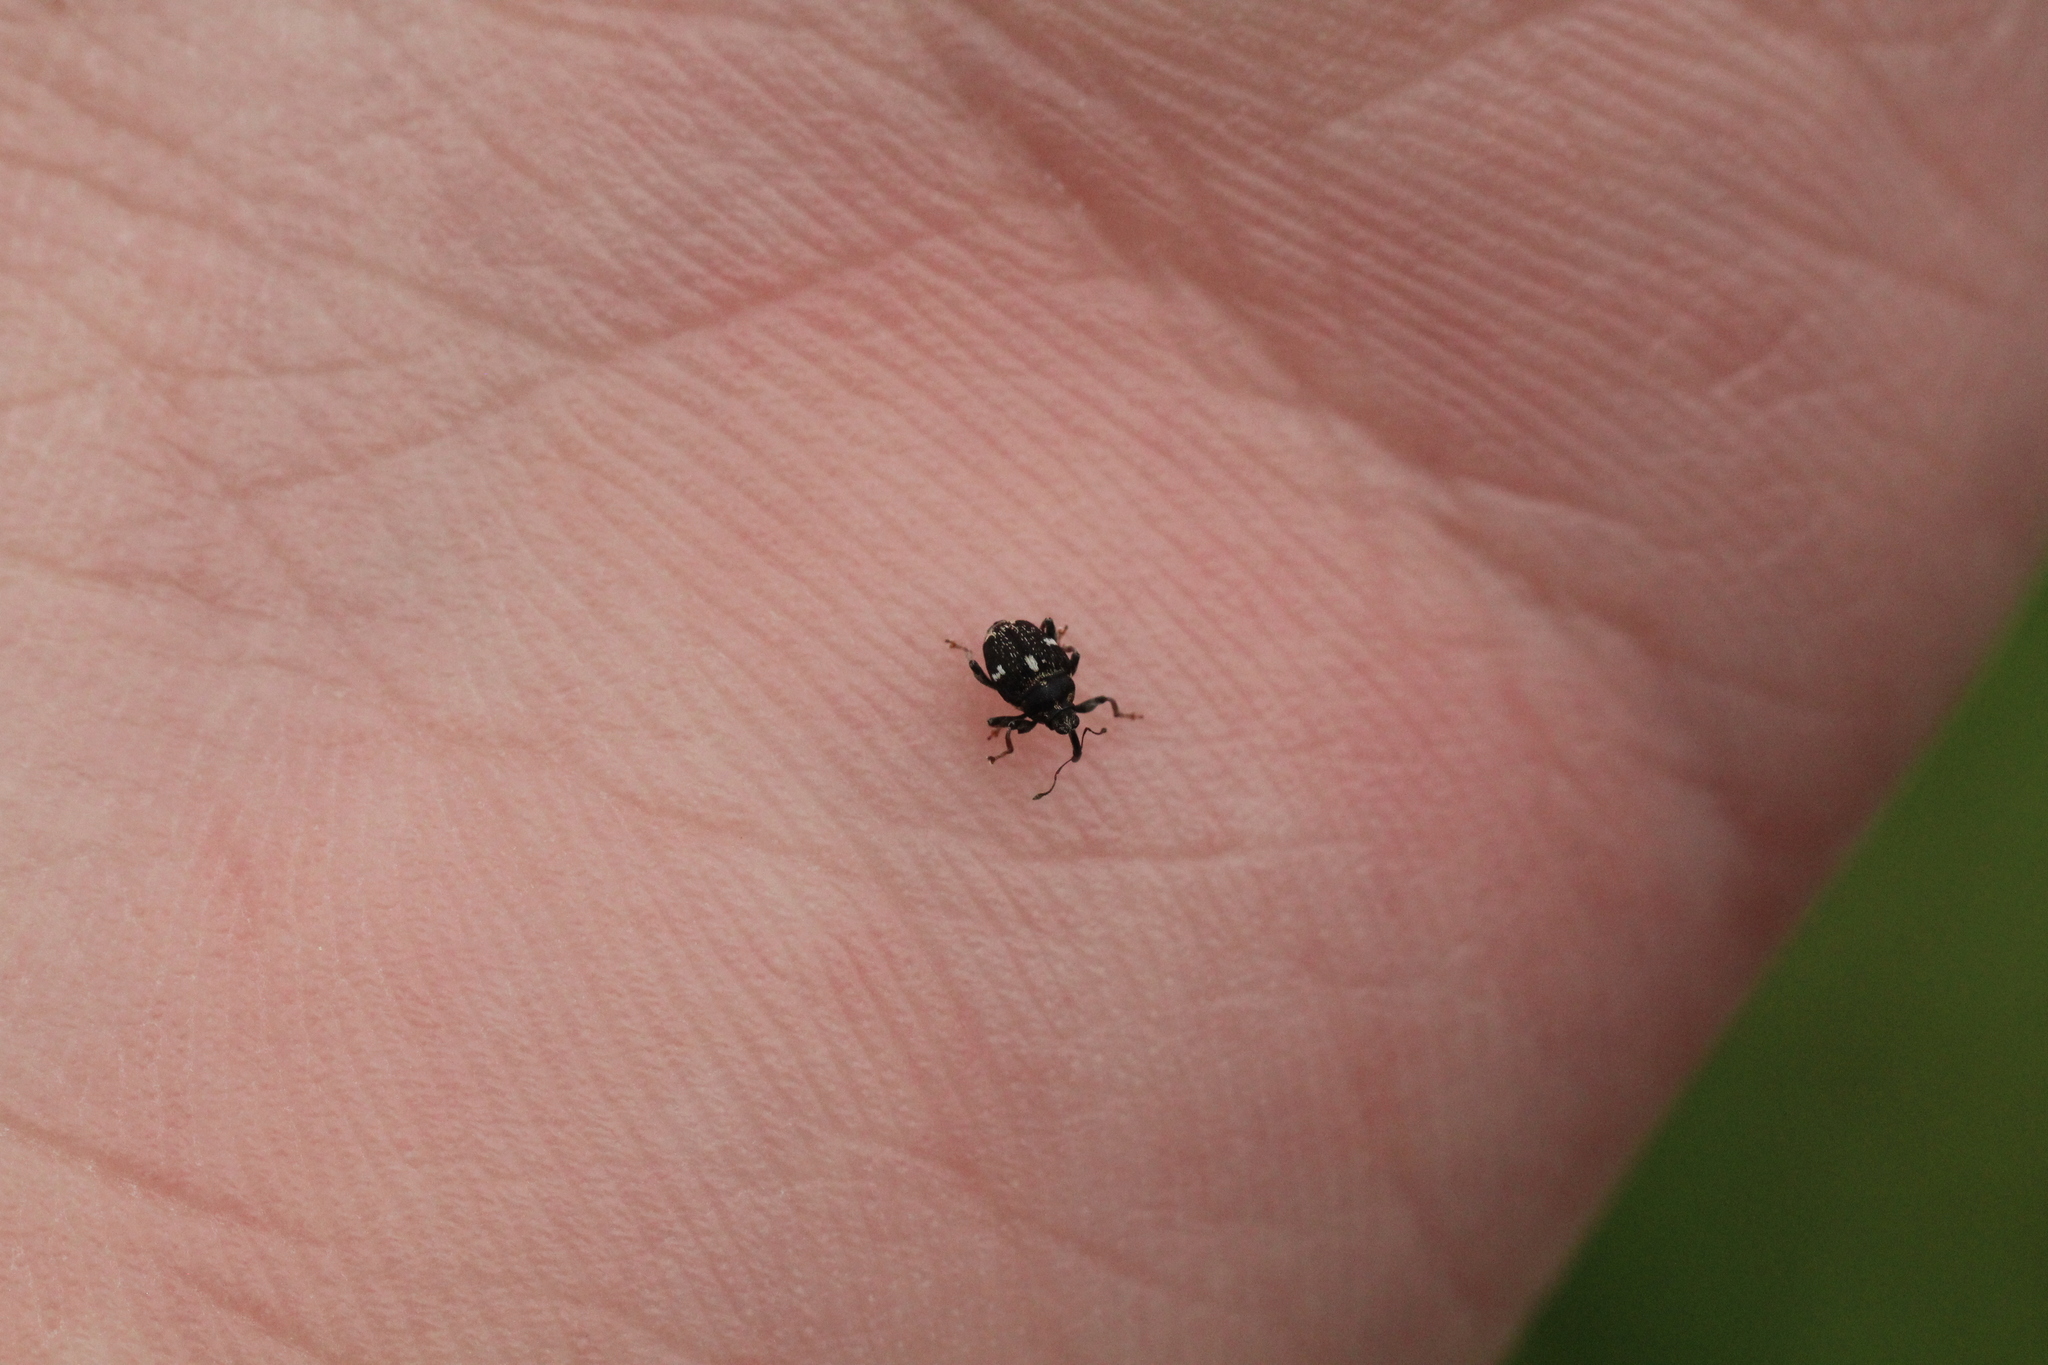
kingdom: Animalia
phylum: Arthropoda
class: Insecta
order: Coleoptera
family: Curculionidae
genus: Mogulones
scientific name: Mogulones asperifoliarum
